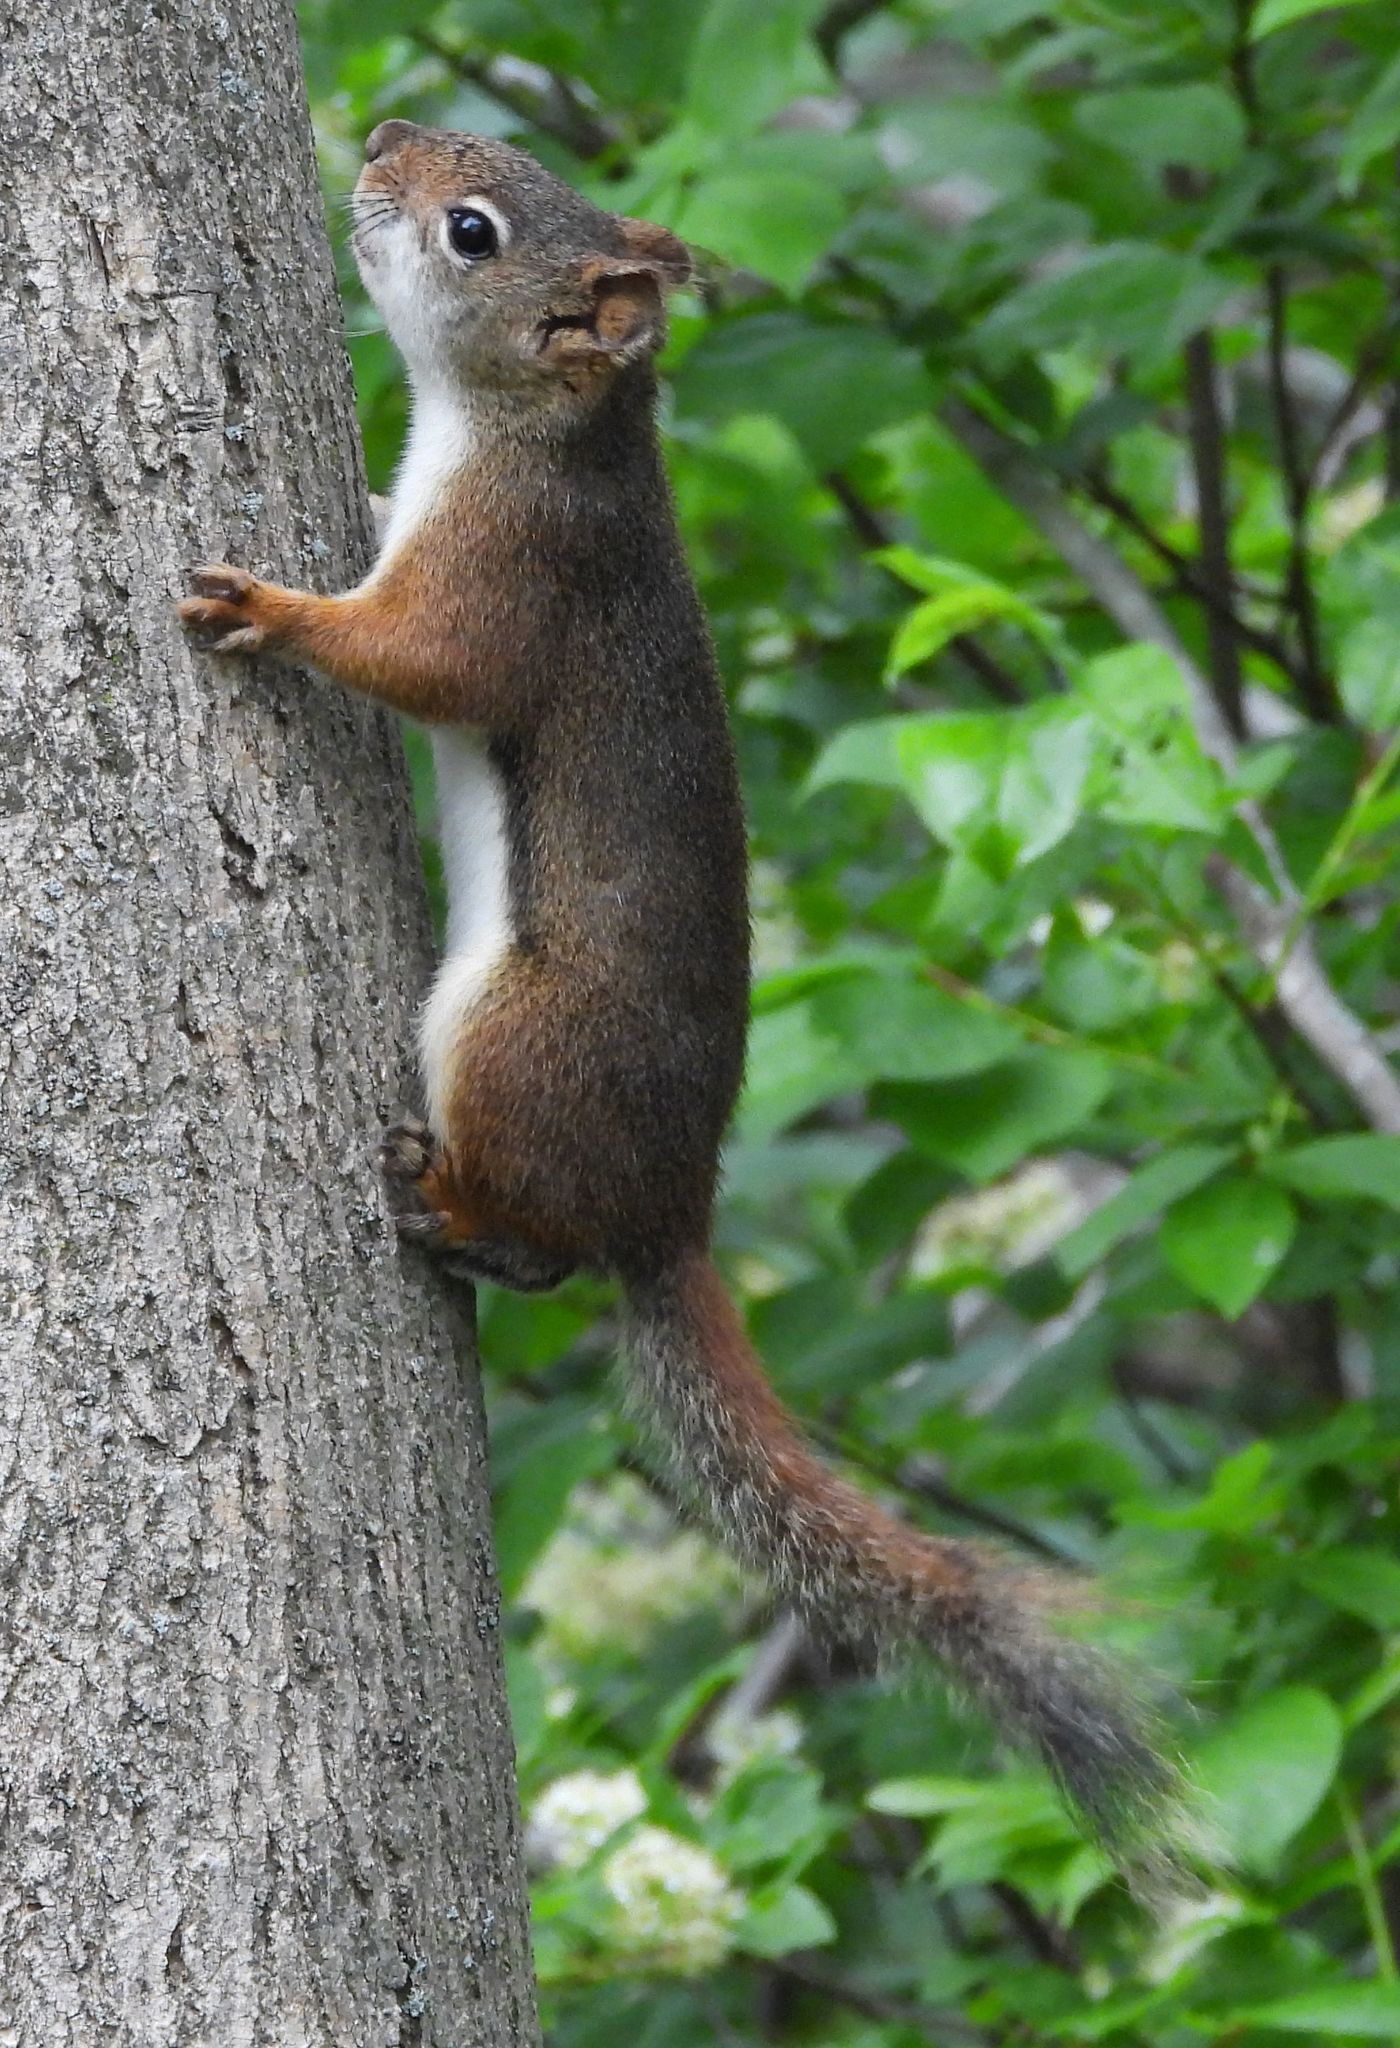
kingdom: Animalia
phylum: Chordata
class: Mammalia
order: Rodentia
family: Sciuridae
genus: Tamiasciurus
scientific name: Tamiasciurus hudsonicus
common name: Red squirrel
